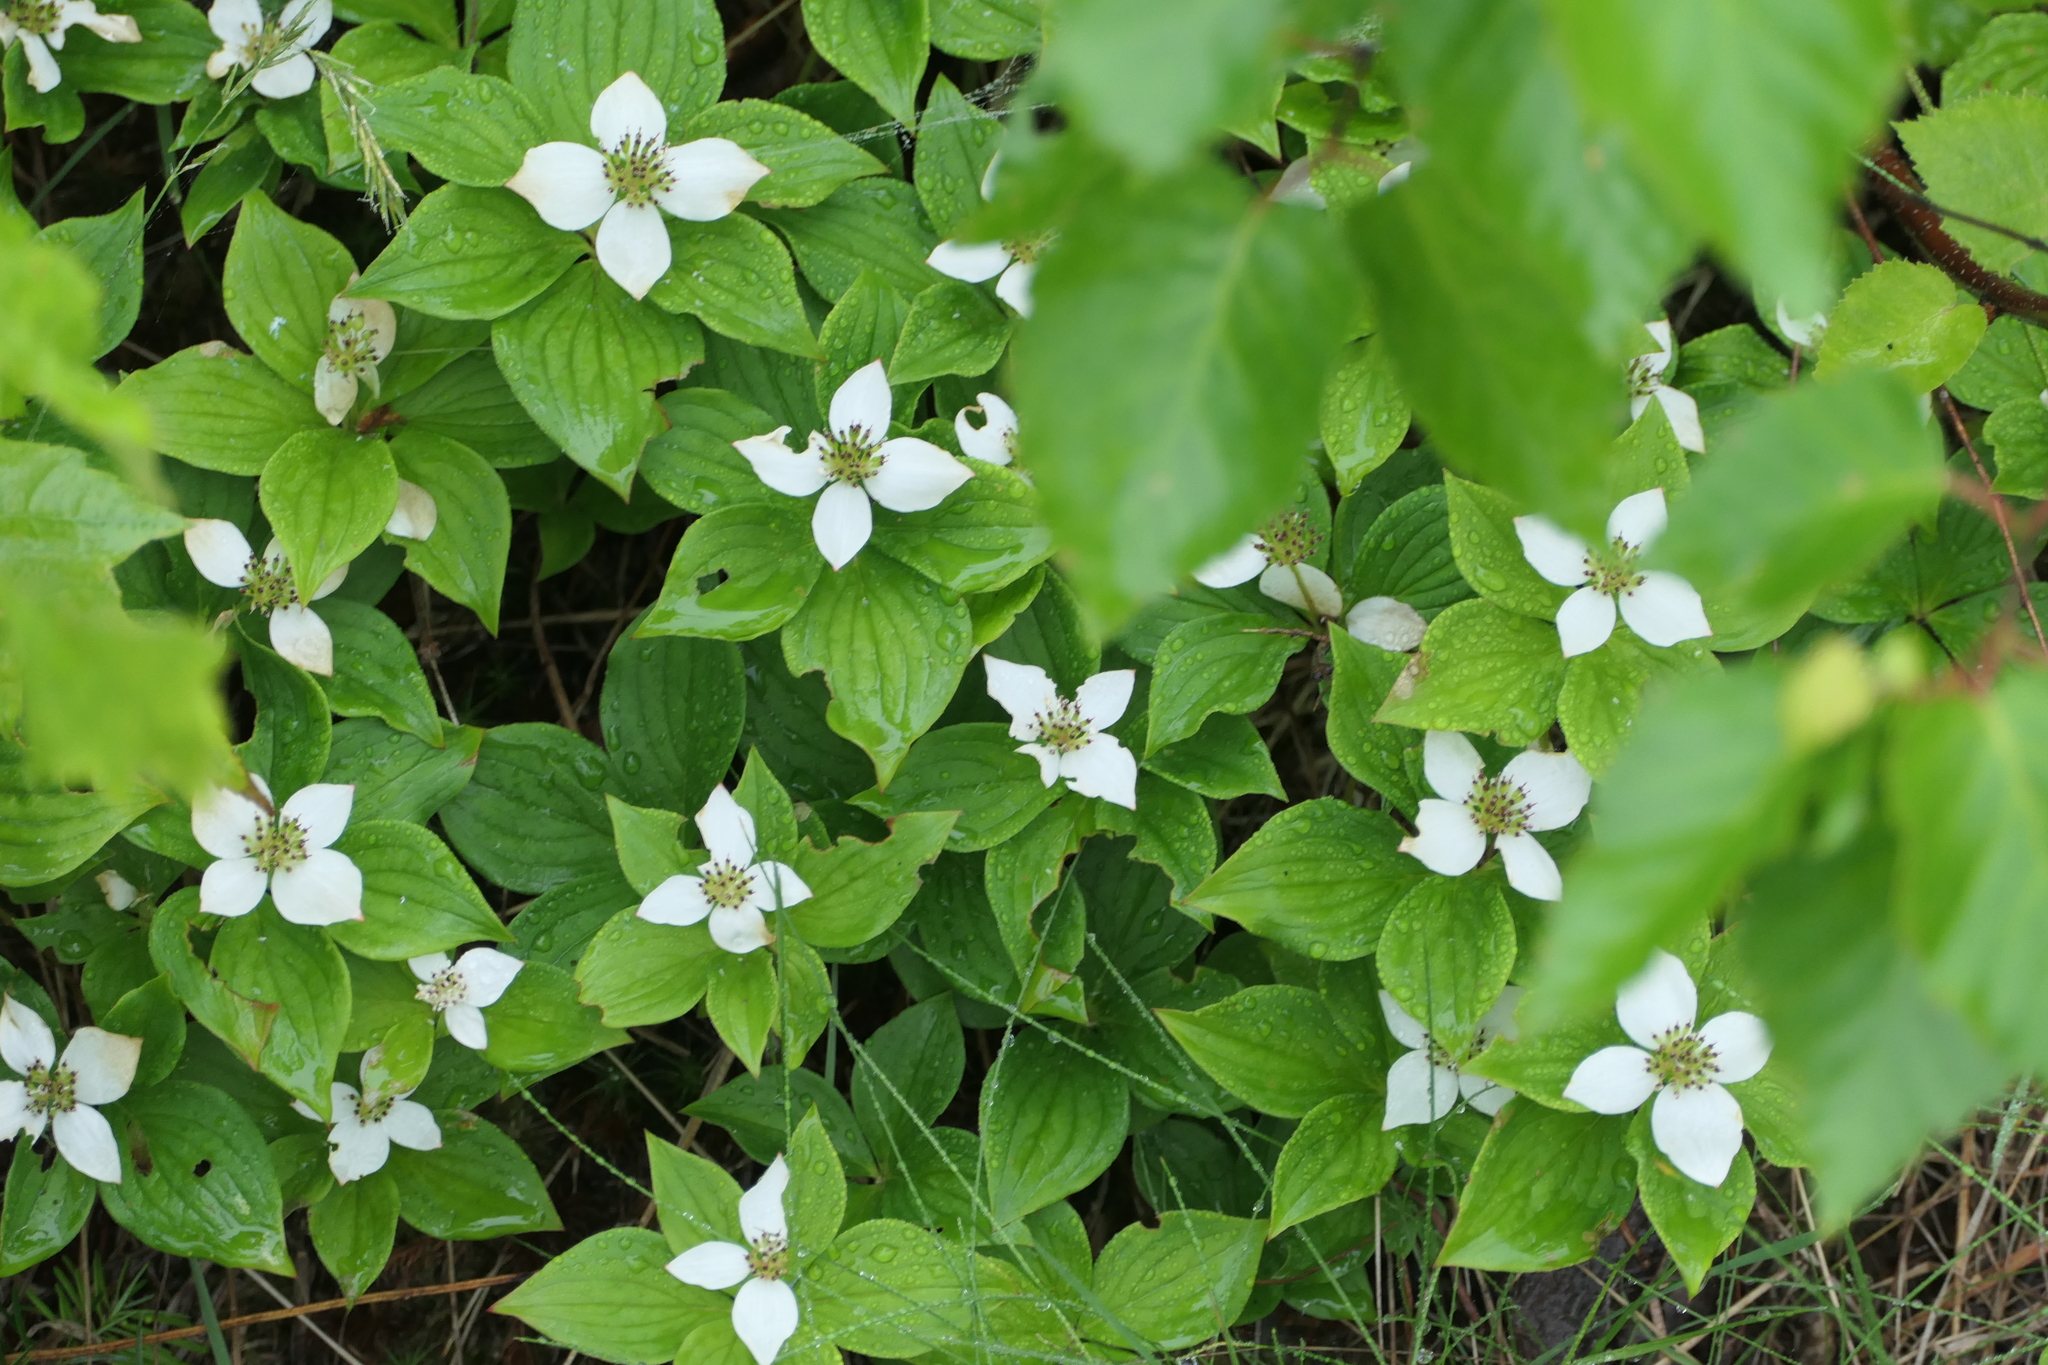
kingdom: Plantae
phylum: Tracheophyta
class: Magnoliopsida
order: Cornales
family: Cornaceae
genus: Cornus
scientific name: Cornus canadensis
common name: Creeping dogwood
